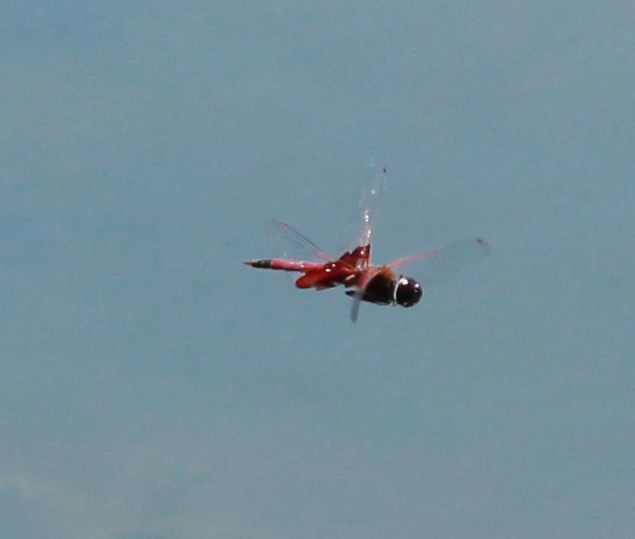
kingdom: Animalia
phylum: Arthropoda
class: Insecta
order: Odonata
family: Libellulidae
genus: Tramea
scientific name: Tramea carolina
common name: Carolina saddlebags
